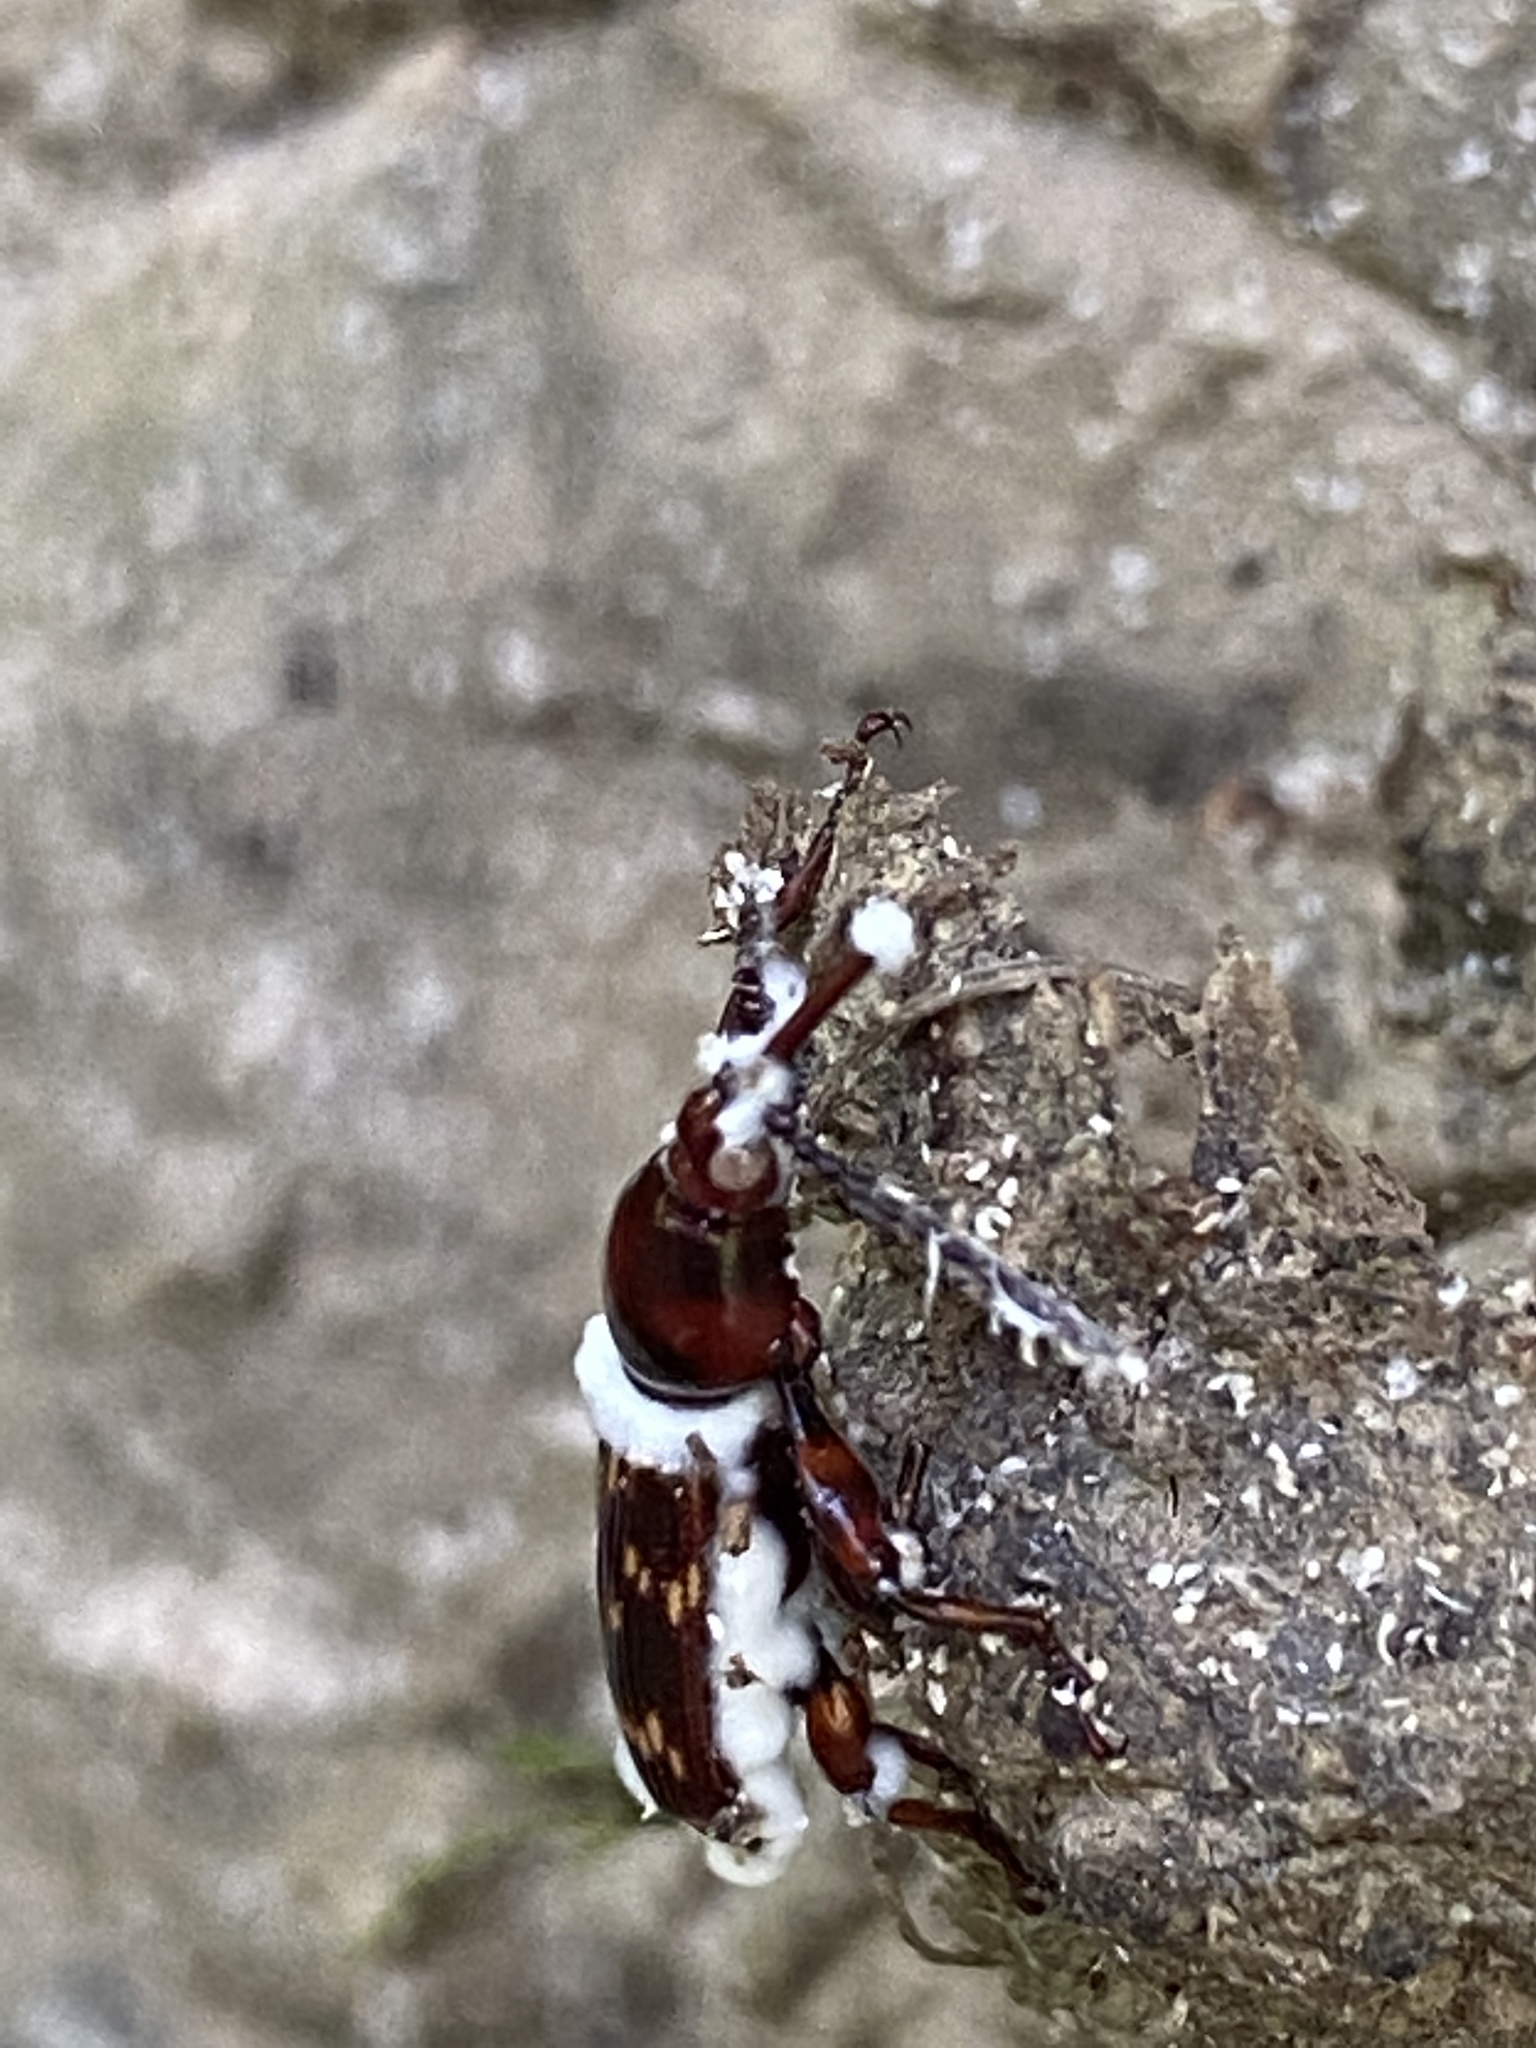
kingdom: Fungi
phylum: Ascomycota
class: Sordariomycetes
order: Hypocreales
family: Cordycipitaceae
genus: Beauveria
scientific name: Beauveria bassiana
